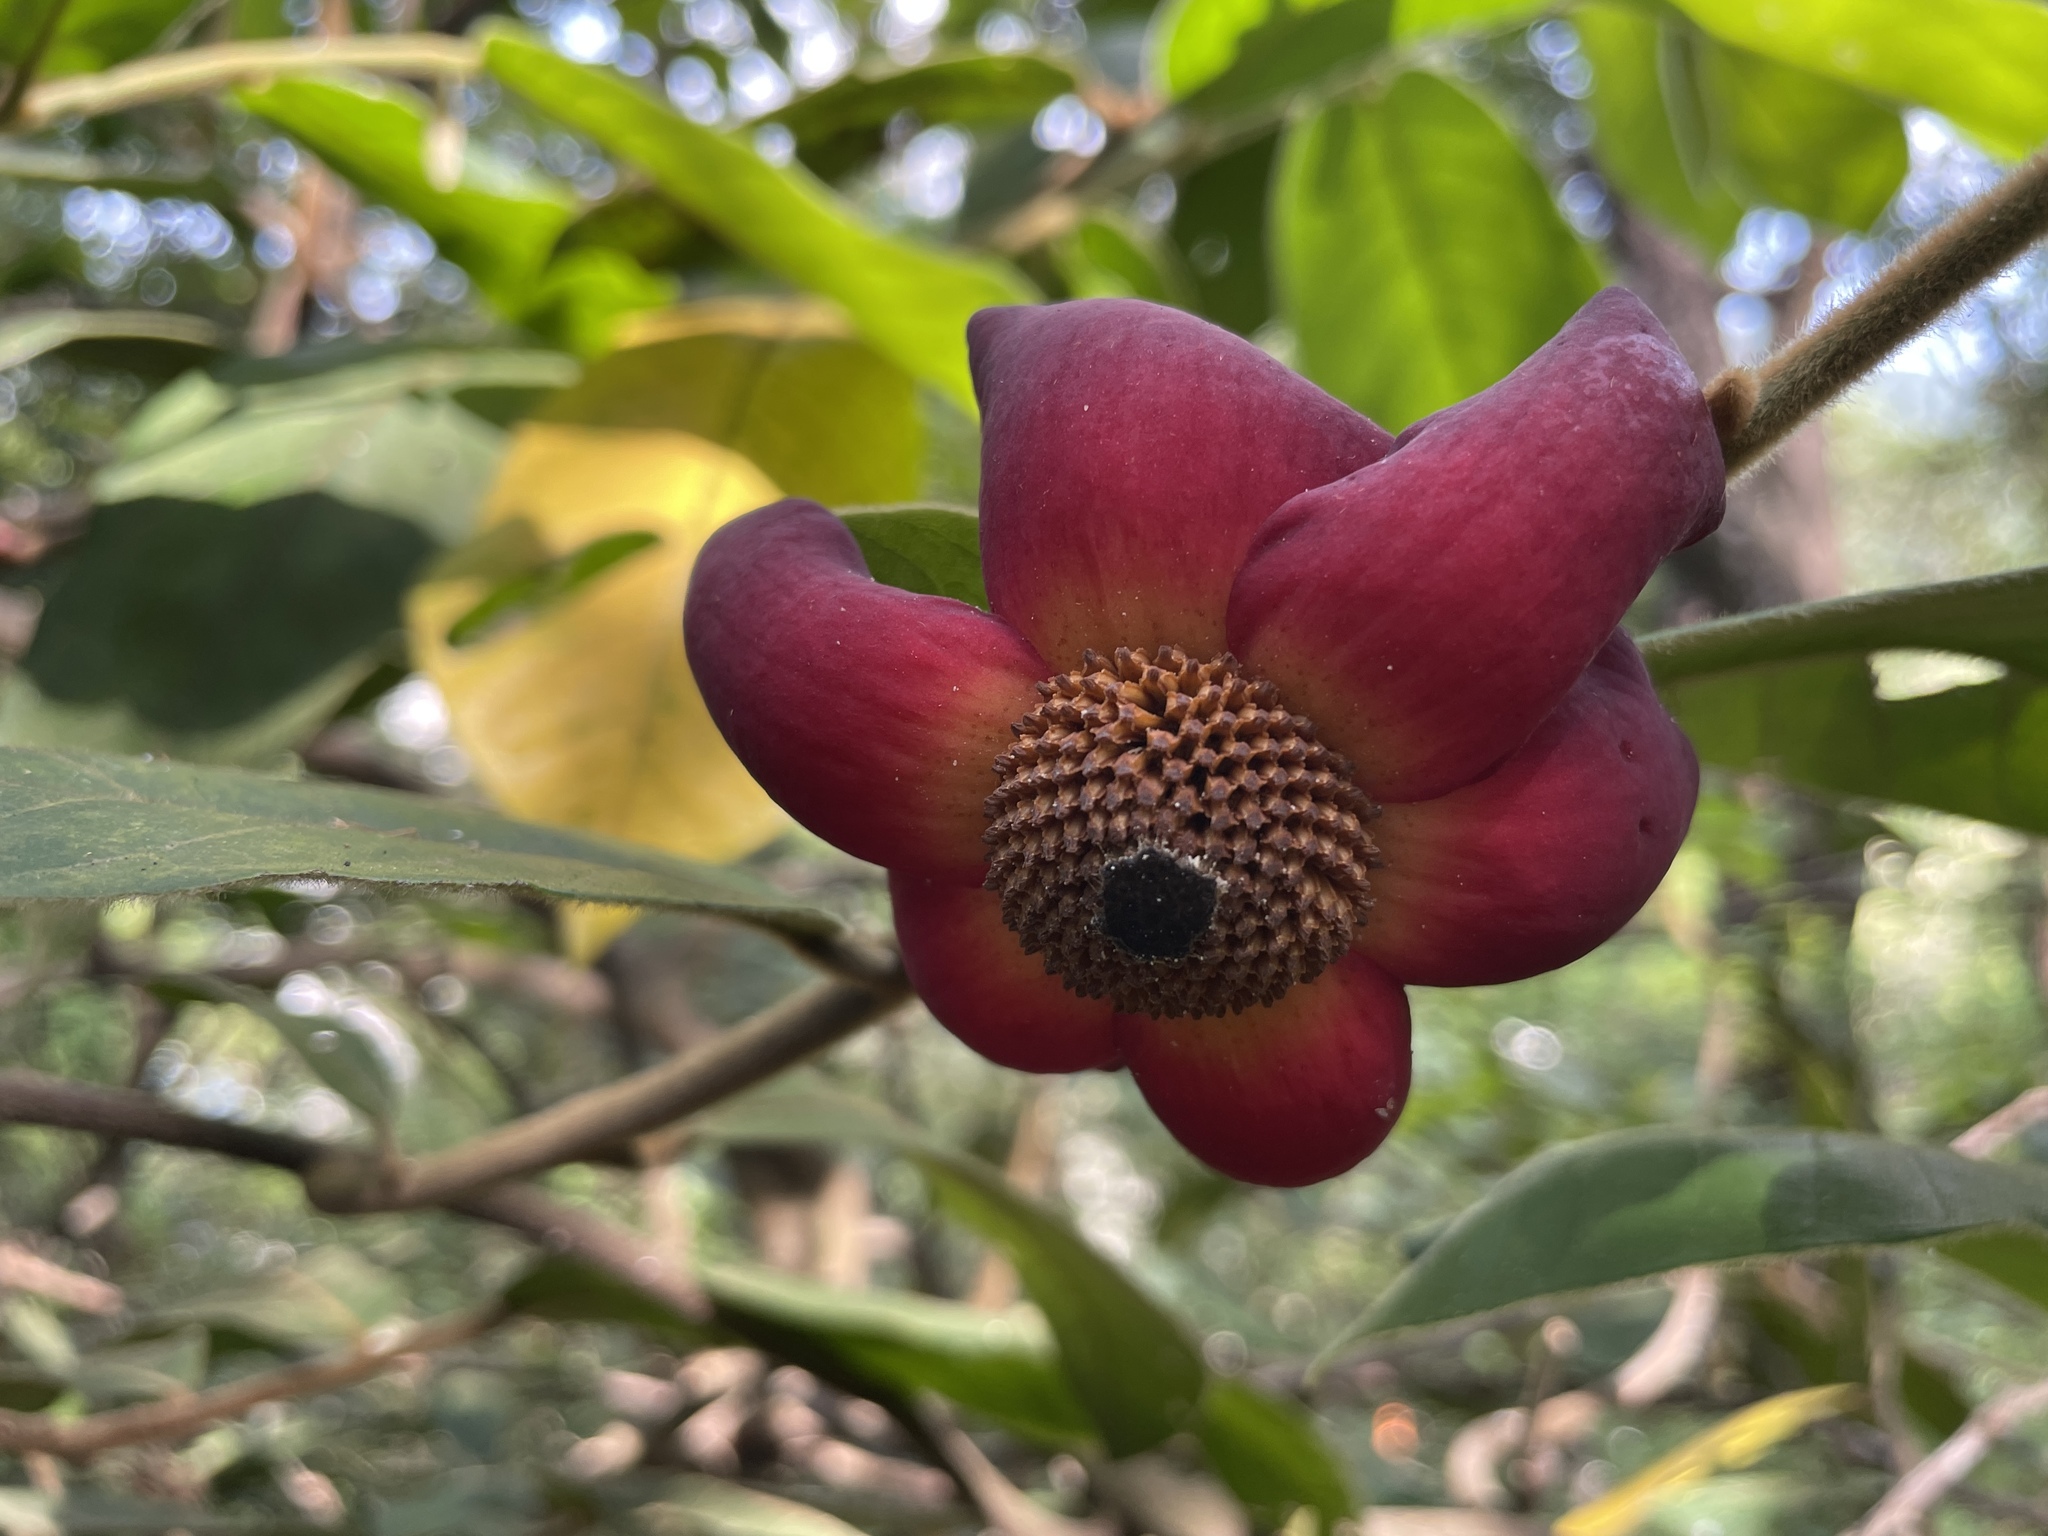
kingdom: Plantae
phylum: Tracheophyta
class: Magnoliopsida
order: Magnoliales
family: Annonaceae
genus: Uvaria
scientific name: Uvaria grandiflora
